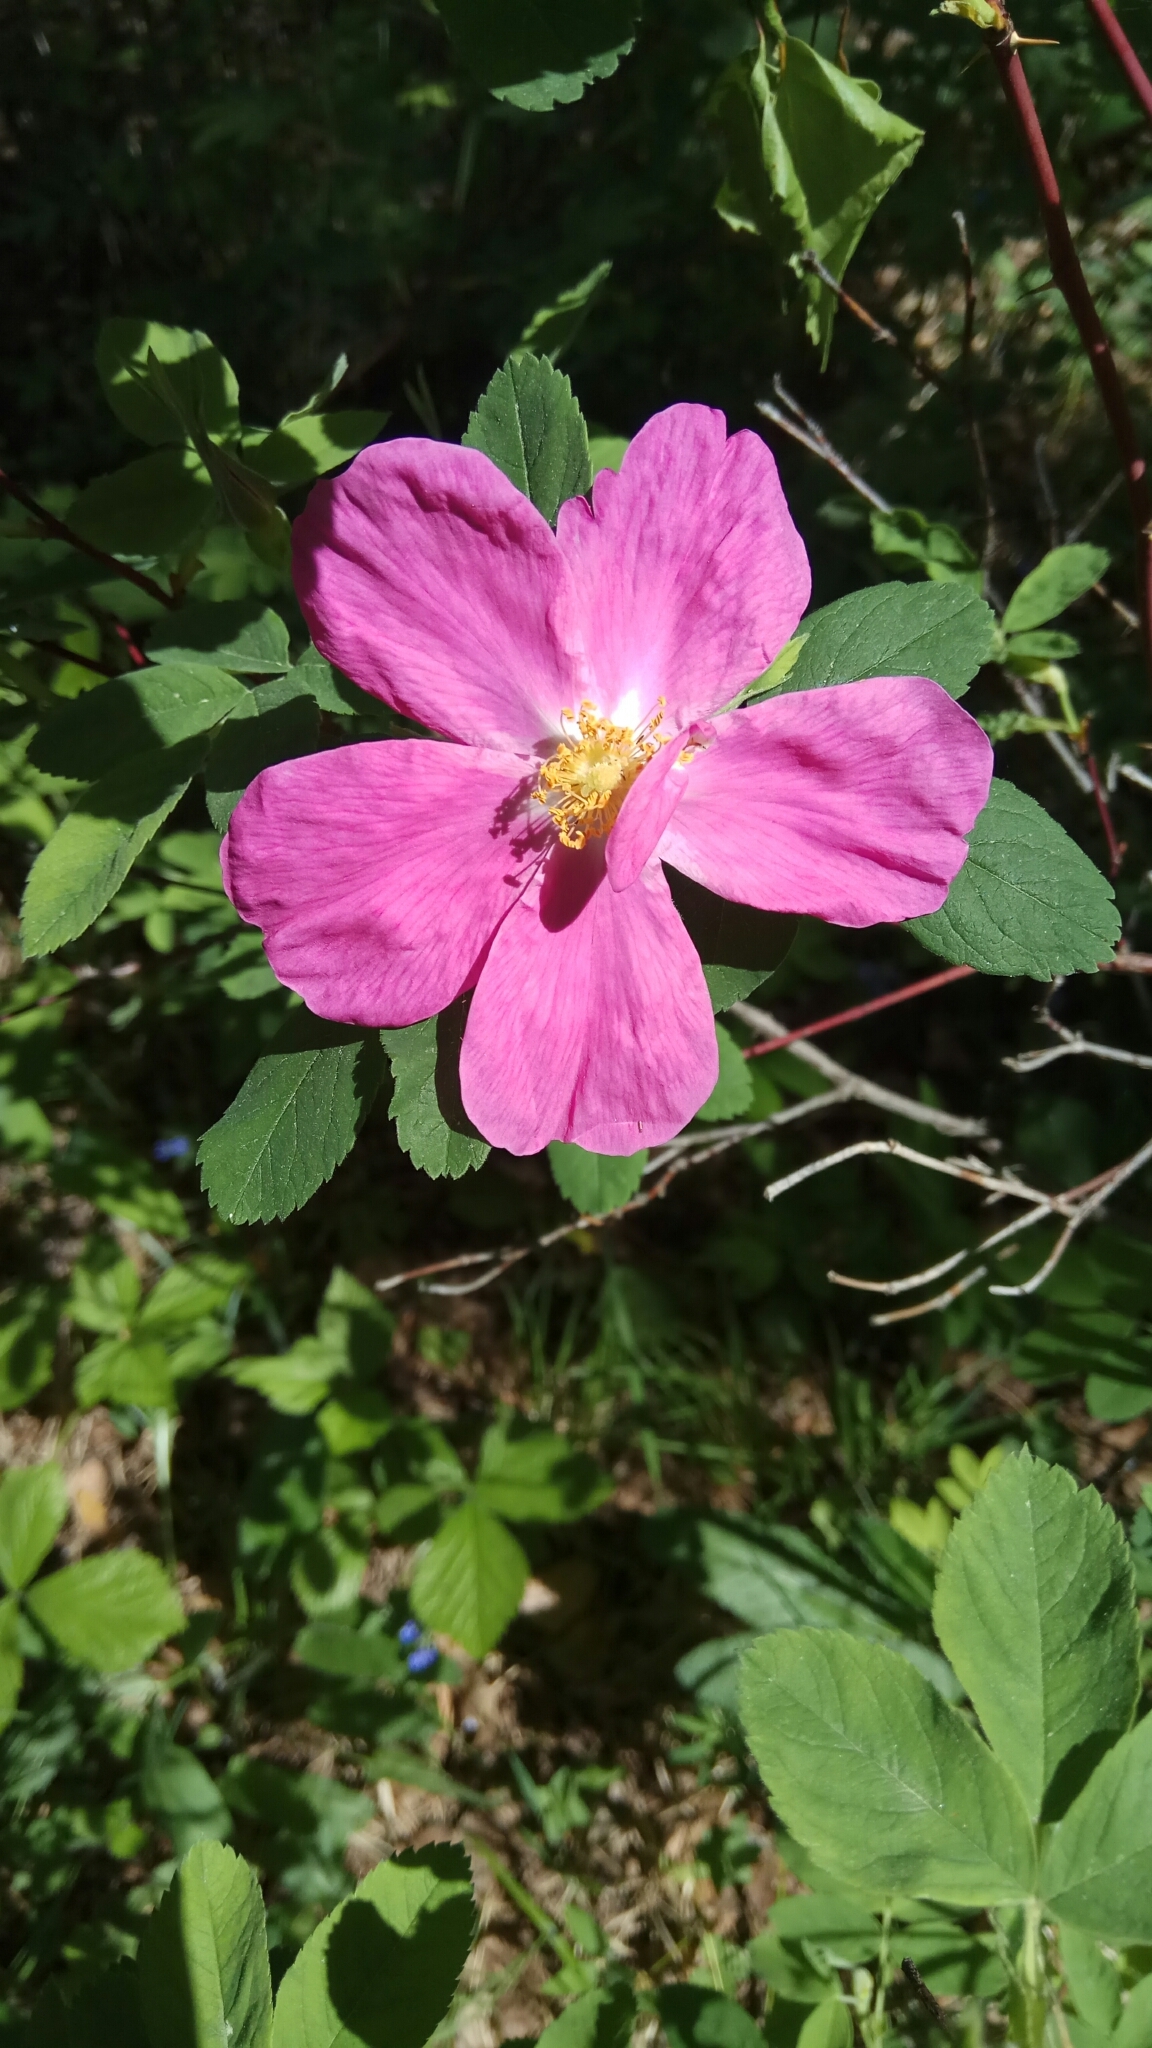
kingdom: Plantae
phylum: Tracheophyta
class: Magnoliopsida
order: Rosales
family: Rosaceae
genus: Rosa
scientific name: Rosa
